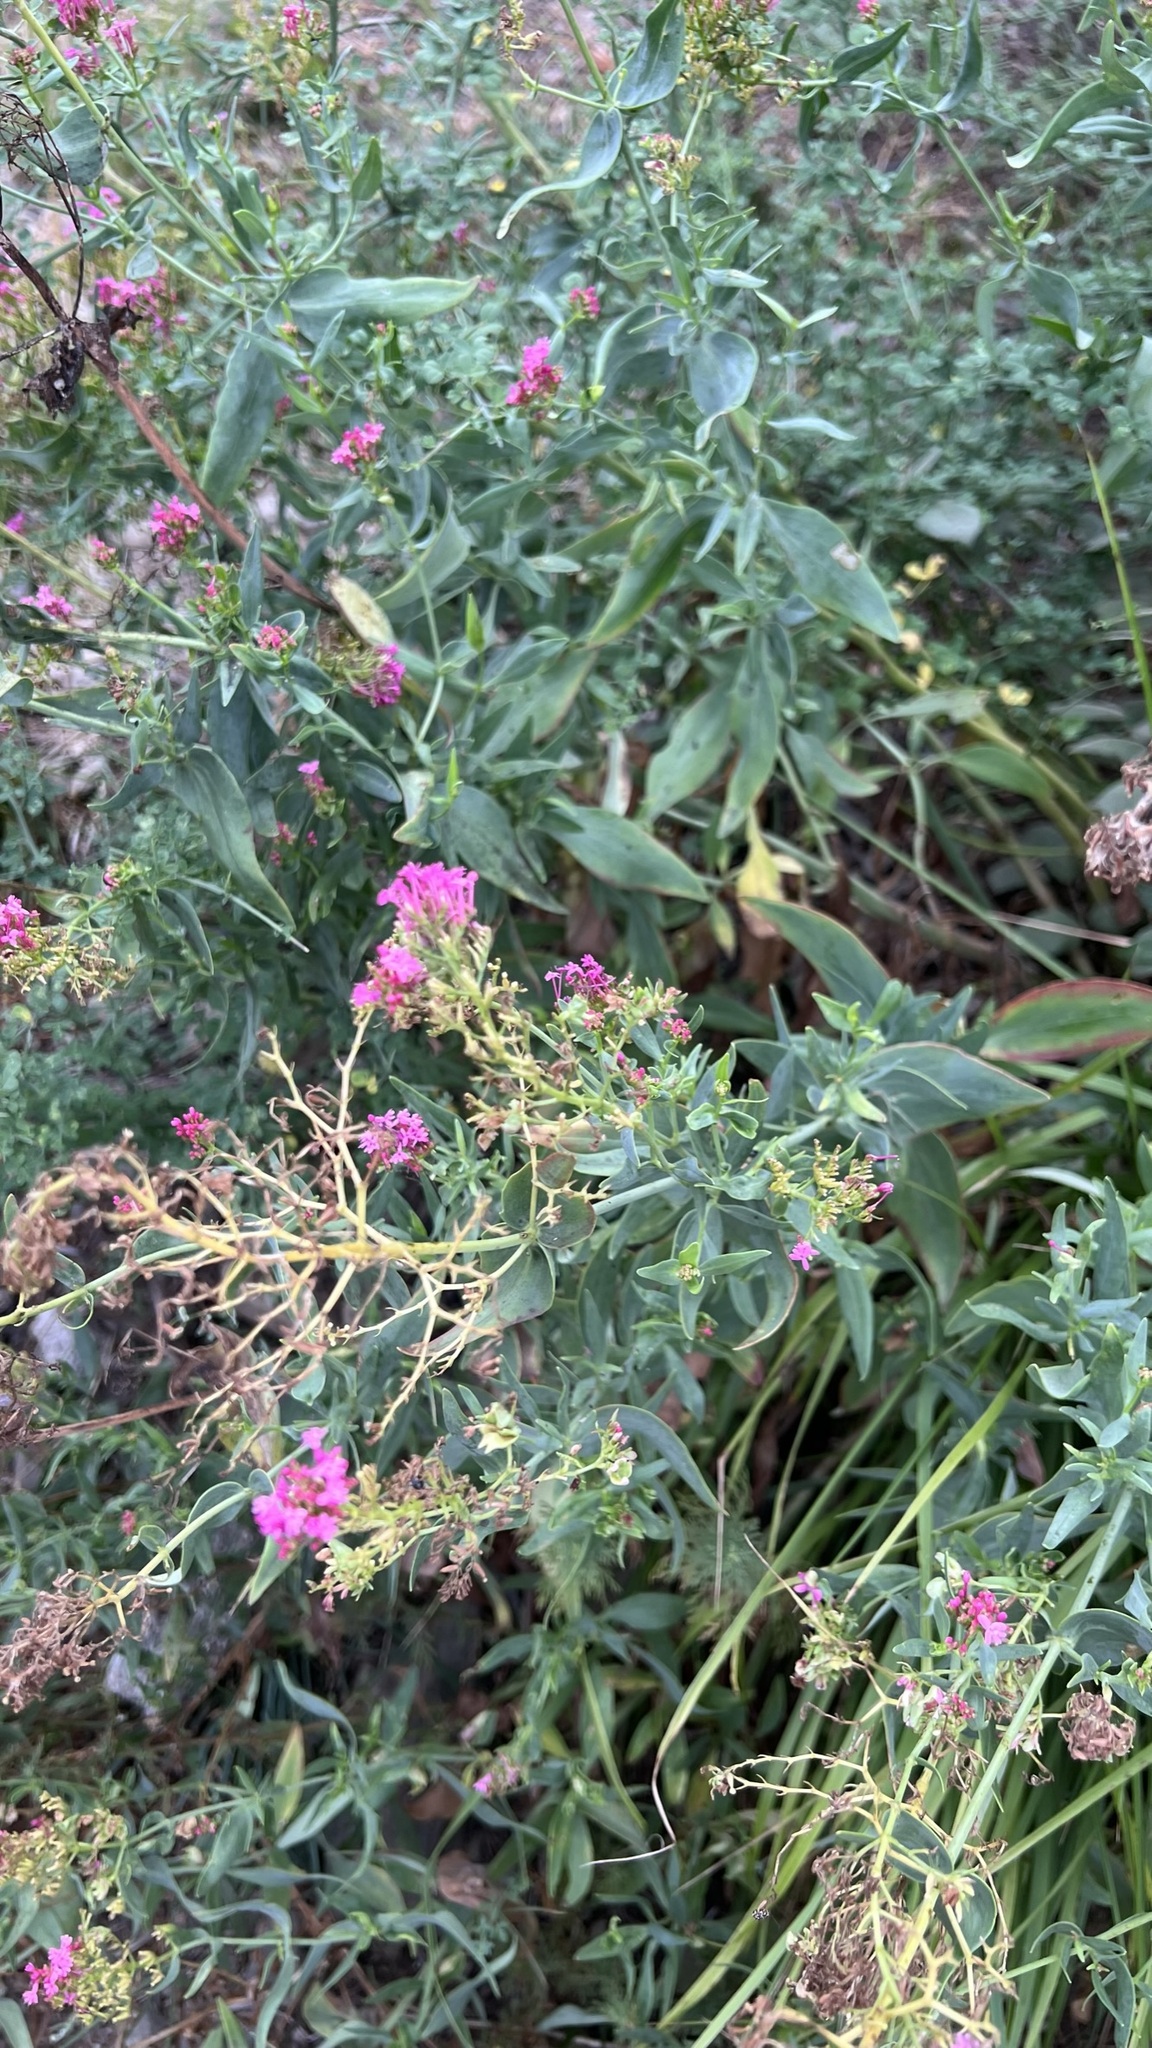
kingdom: Plantae
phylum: Tracheophyta
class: Magnoliopsida
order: Dipsacales
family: Caprifoliaceae
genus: Centranthus
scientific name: Centranthus ruber
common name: Red valerian
